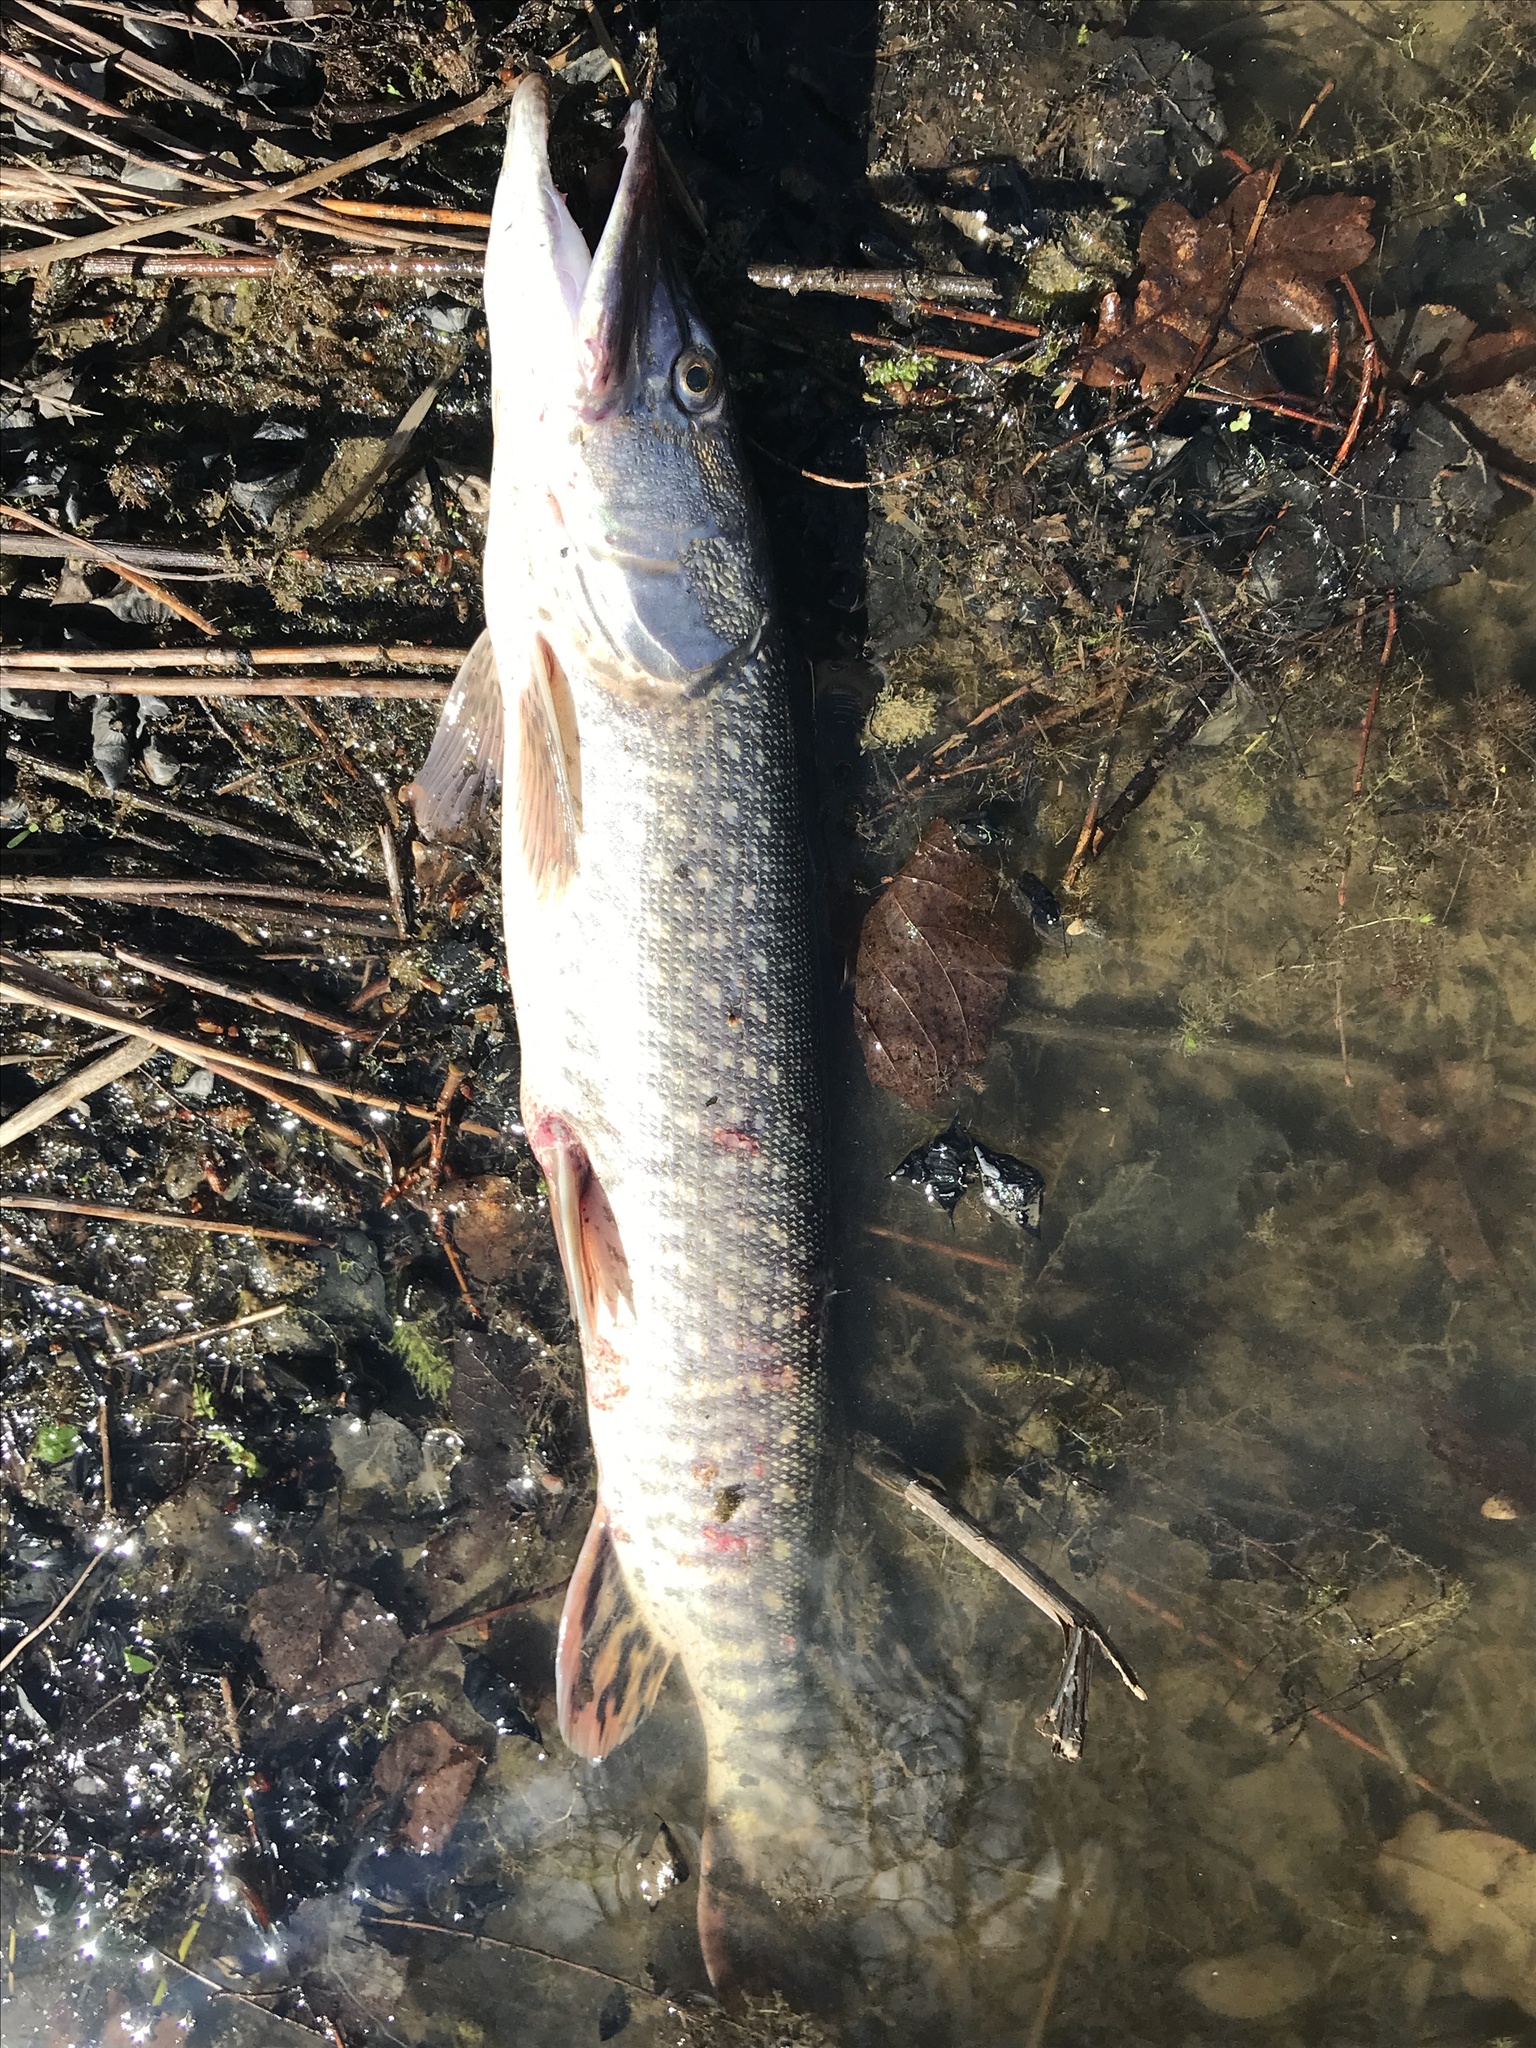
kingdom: Animalia
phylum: Chordata
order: Esociformes
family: Esocidae
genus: Esox
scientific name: Esox lucius
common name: Northern pike
